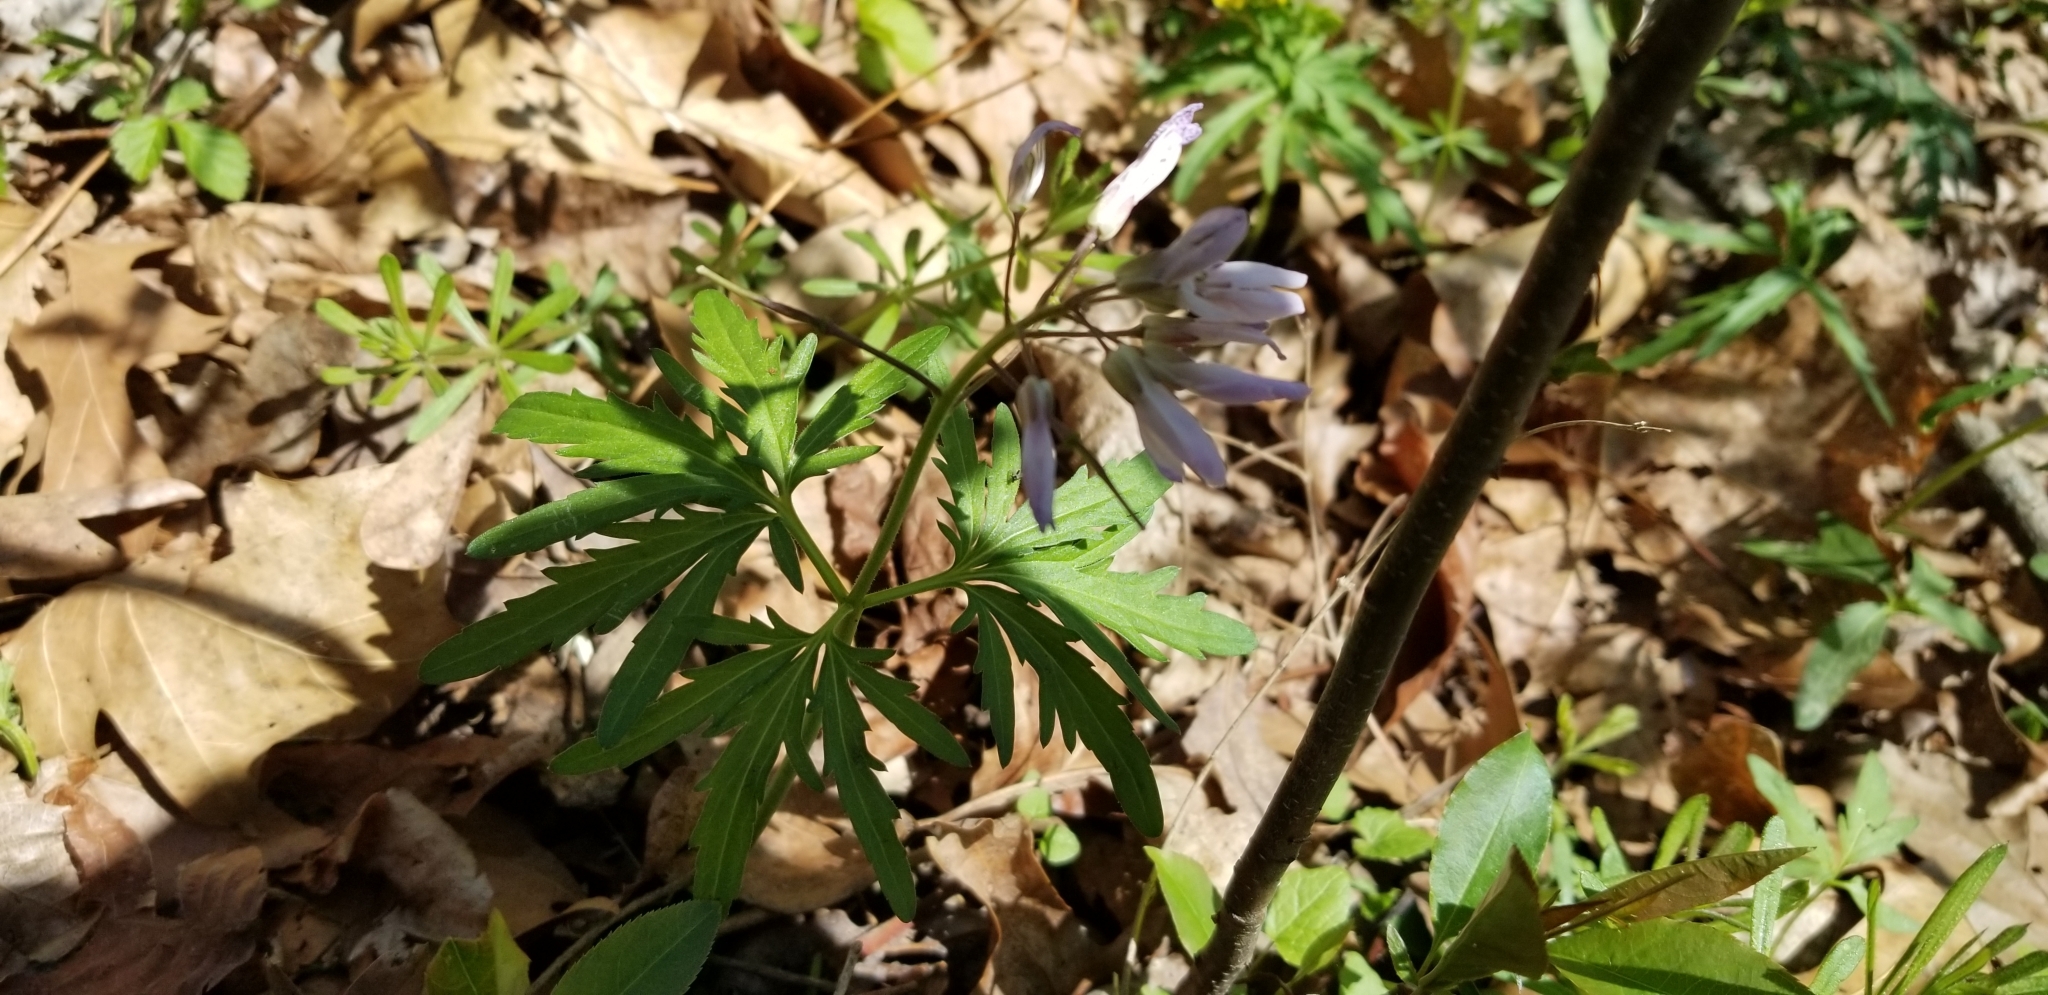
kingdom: Plantae
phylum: Tracheophyta
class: Magnoliopsida
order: Brassicales
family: Brassicaceae
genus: Cardamine
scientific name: Cardamine concatenata
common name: Cut-leaf toothcup
